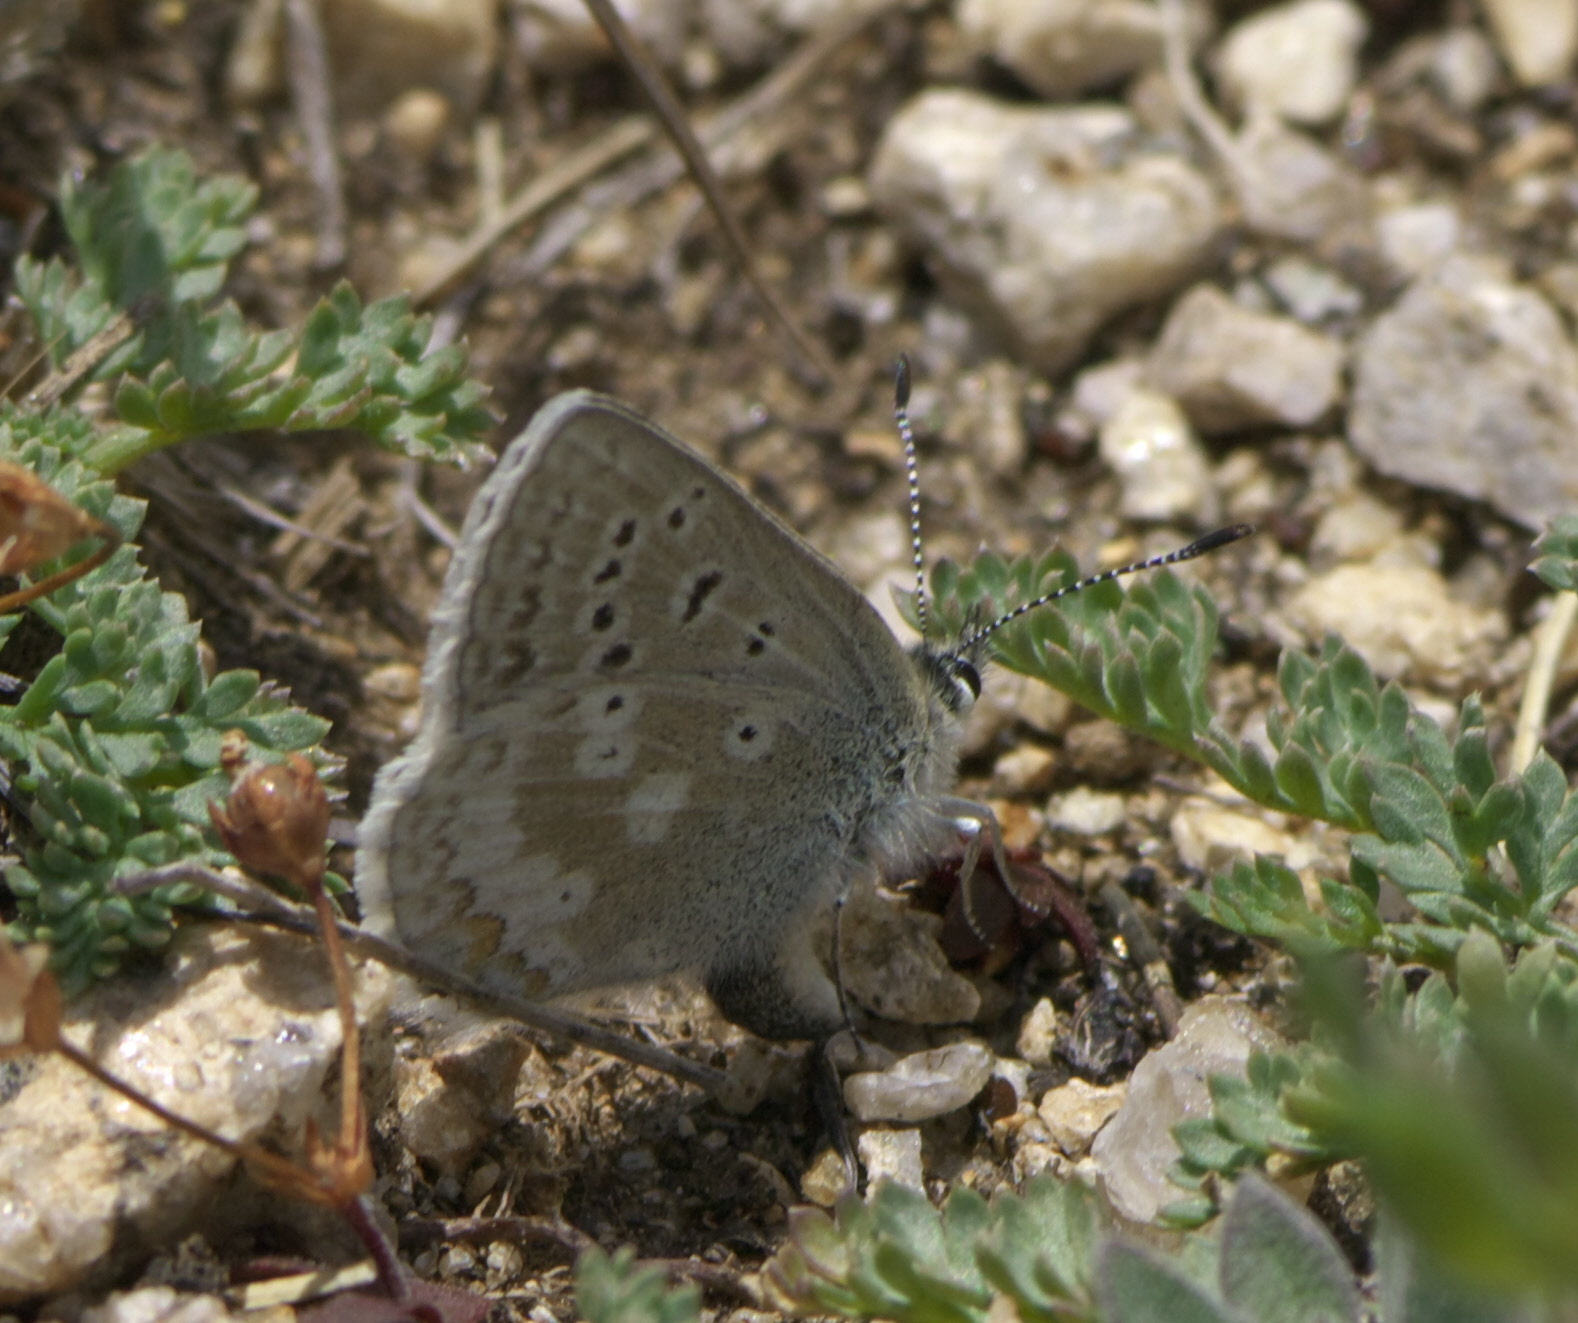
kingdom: Animalia
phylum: Arthropoda
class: Insecta
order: Lepidoptera
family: Lycaenidae
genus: Agriades
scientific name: Agriades glandon
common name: Glandon blue
